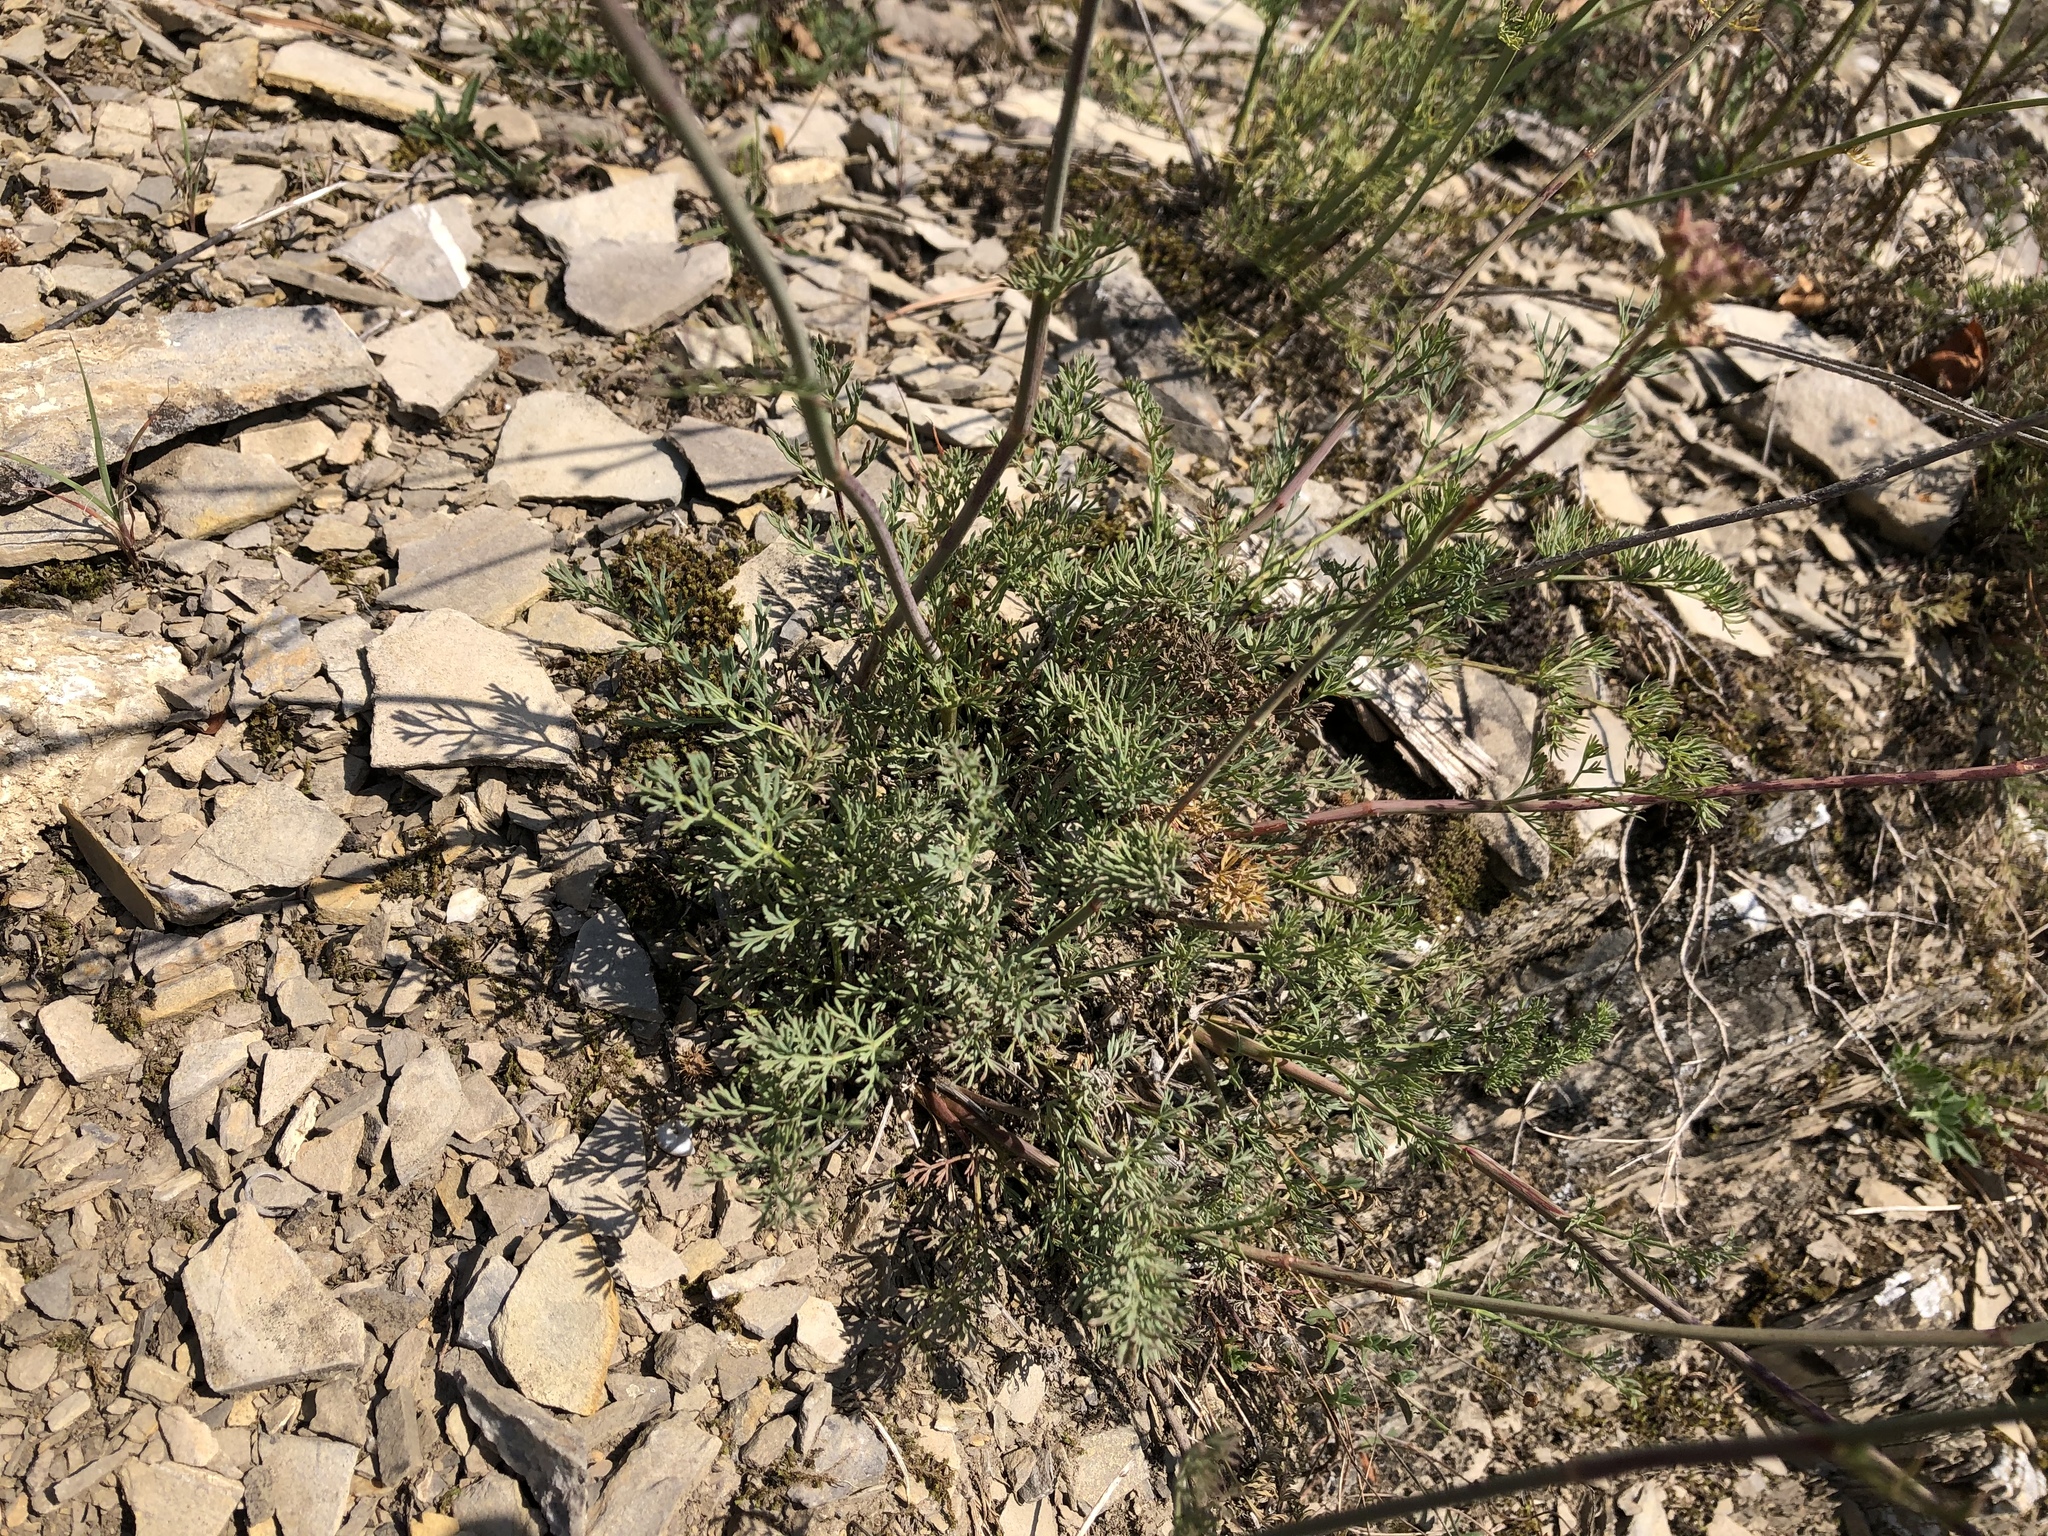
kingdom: Plantae
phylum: Tracheophyta
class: Magnoliopsida
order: Apiales
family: Apiaceae
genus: Hippomarathrum
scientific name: Hippomarathrum
